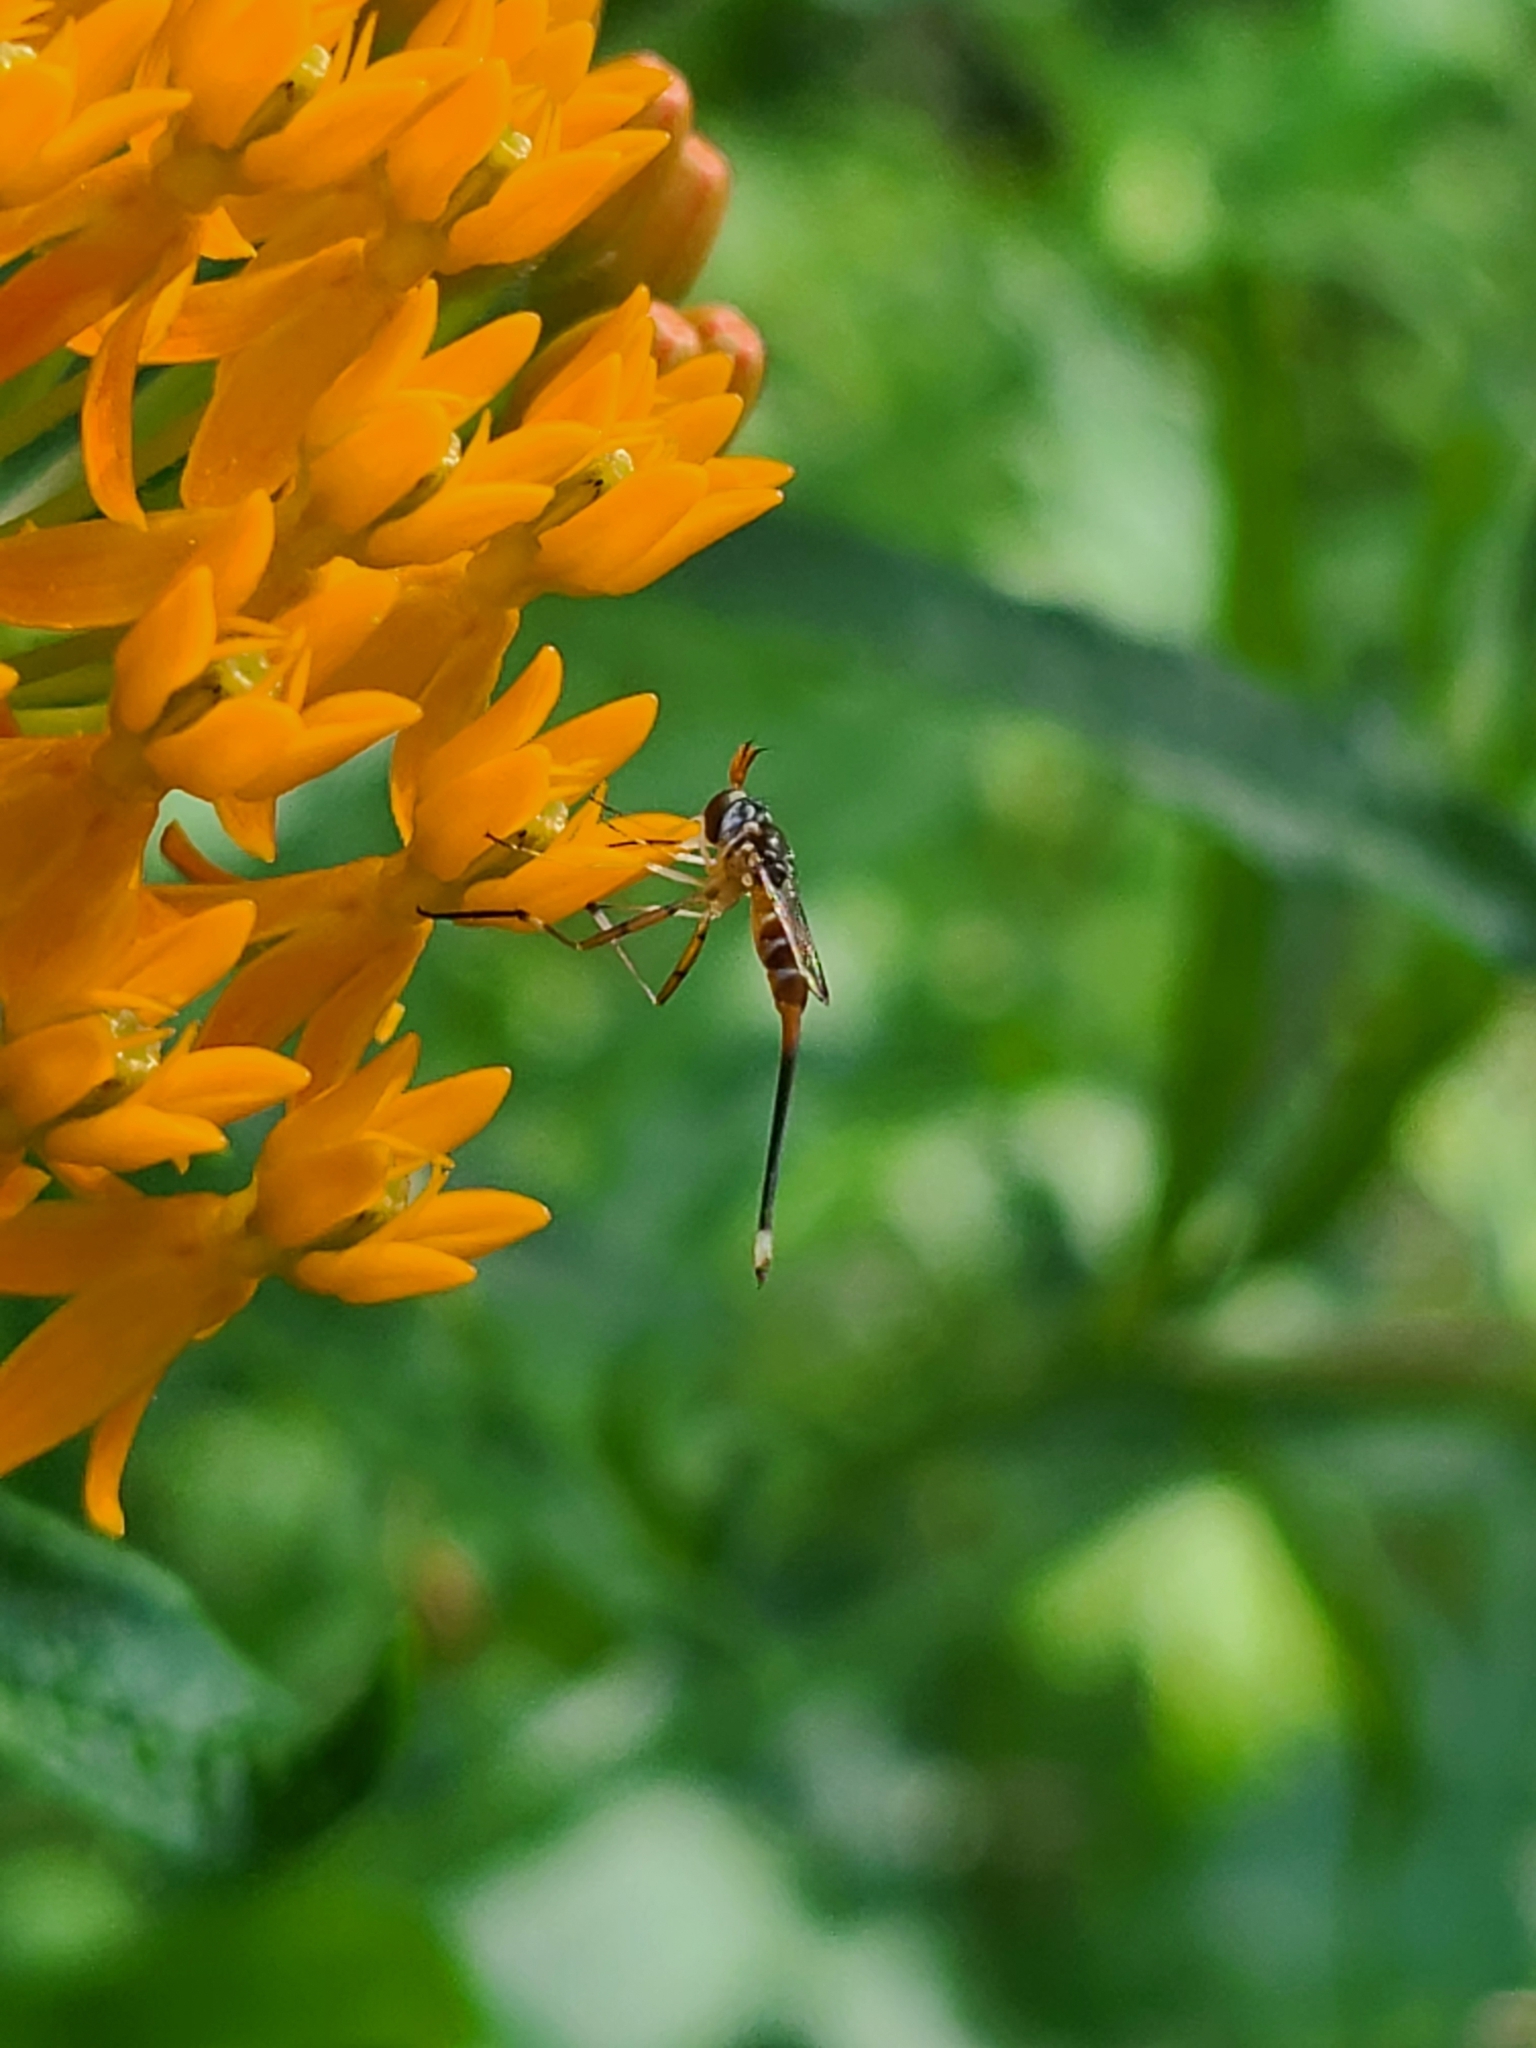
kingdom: Animalia
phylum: Arthropoda
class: Insecta
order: Diptera
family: Conopidae
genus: Stylogaster
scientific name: Stylogaster neglecta
